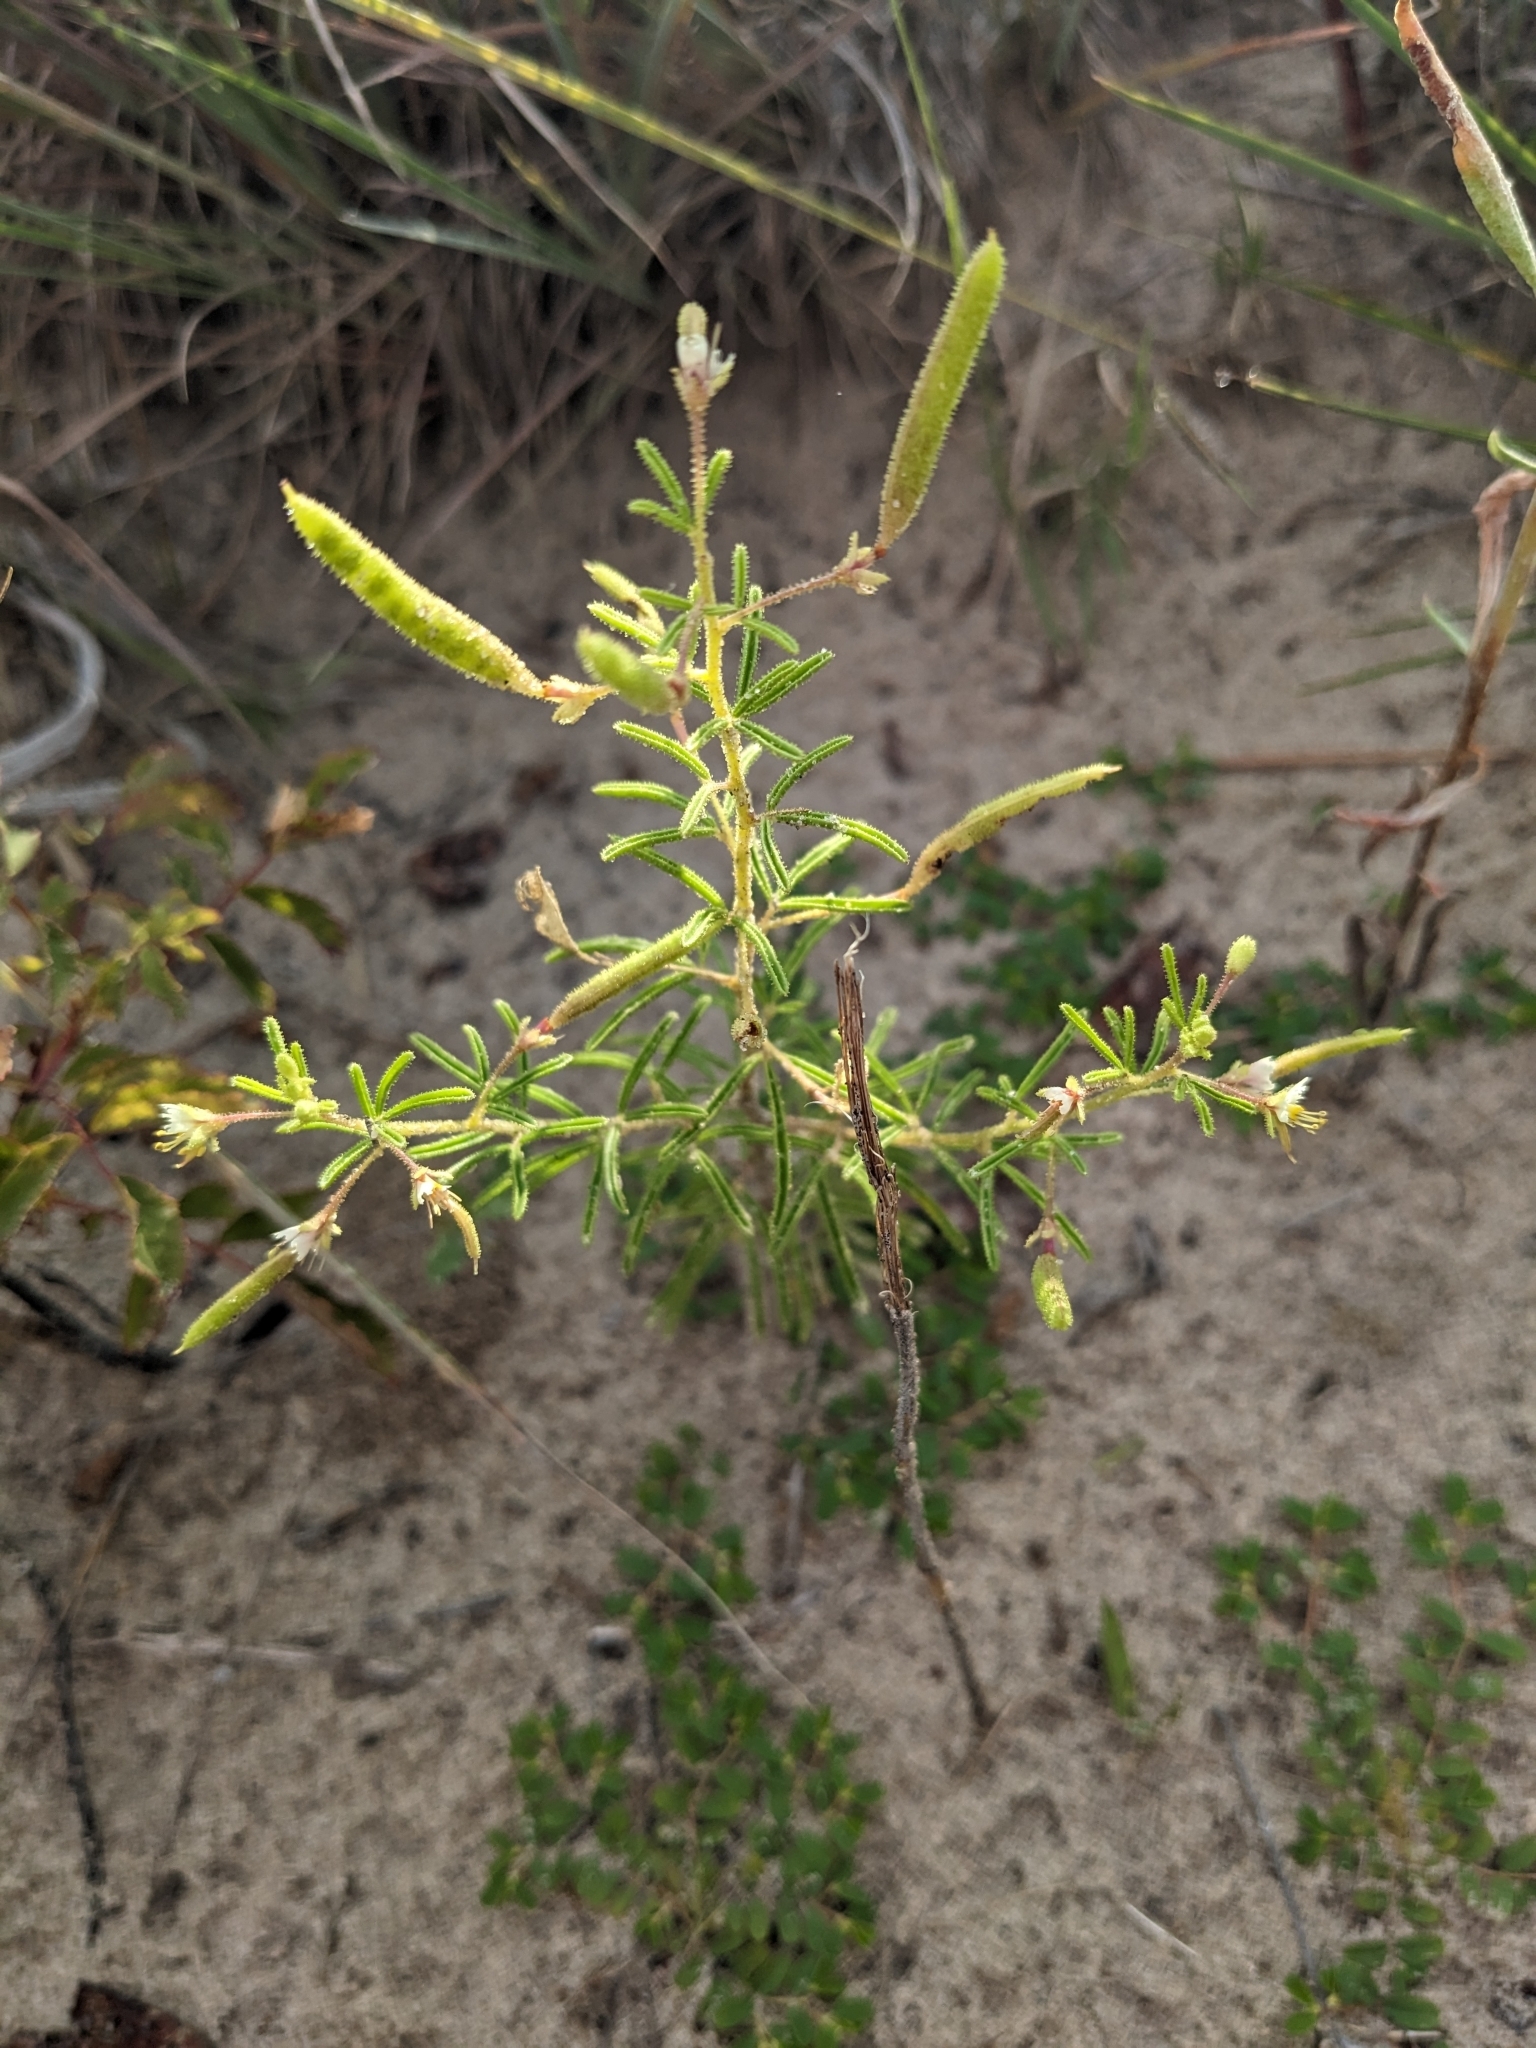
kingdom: Plantae
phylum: Tracheophyta
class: Magnoliopsida
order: Brassicales
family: Cleomaceae
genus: Polanisia
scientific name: Polanisia jamesii
